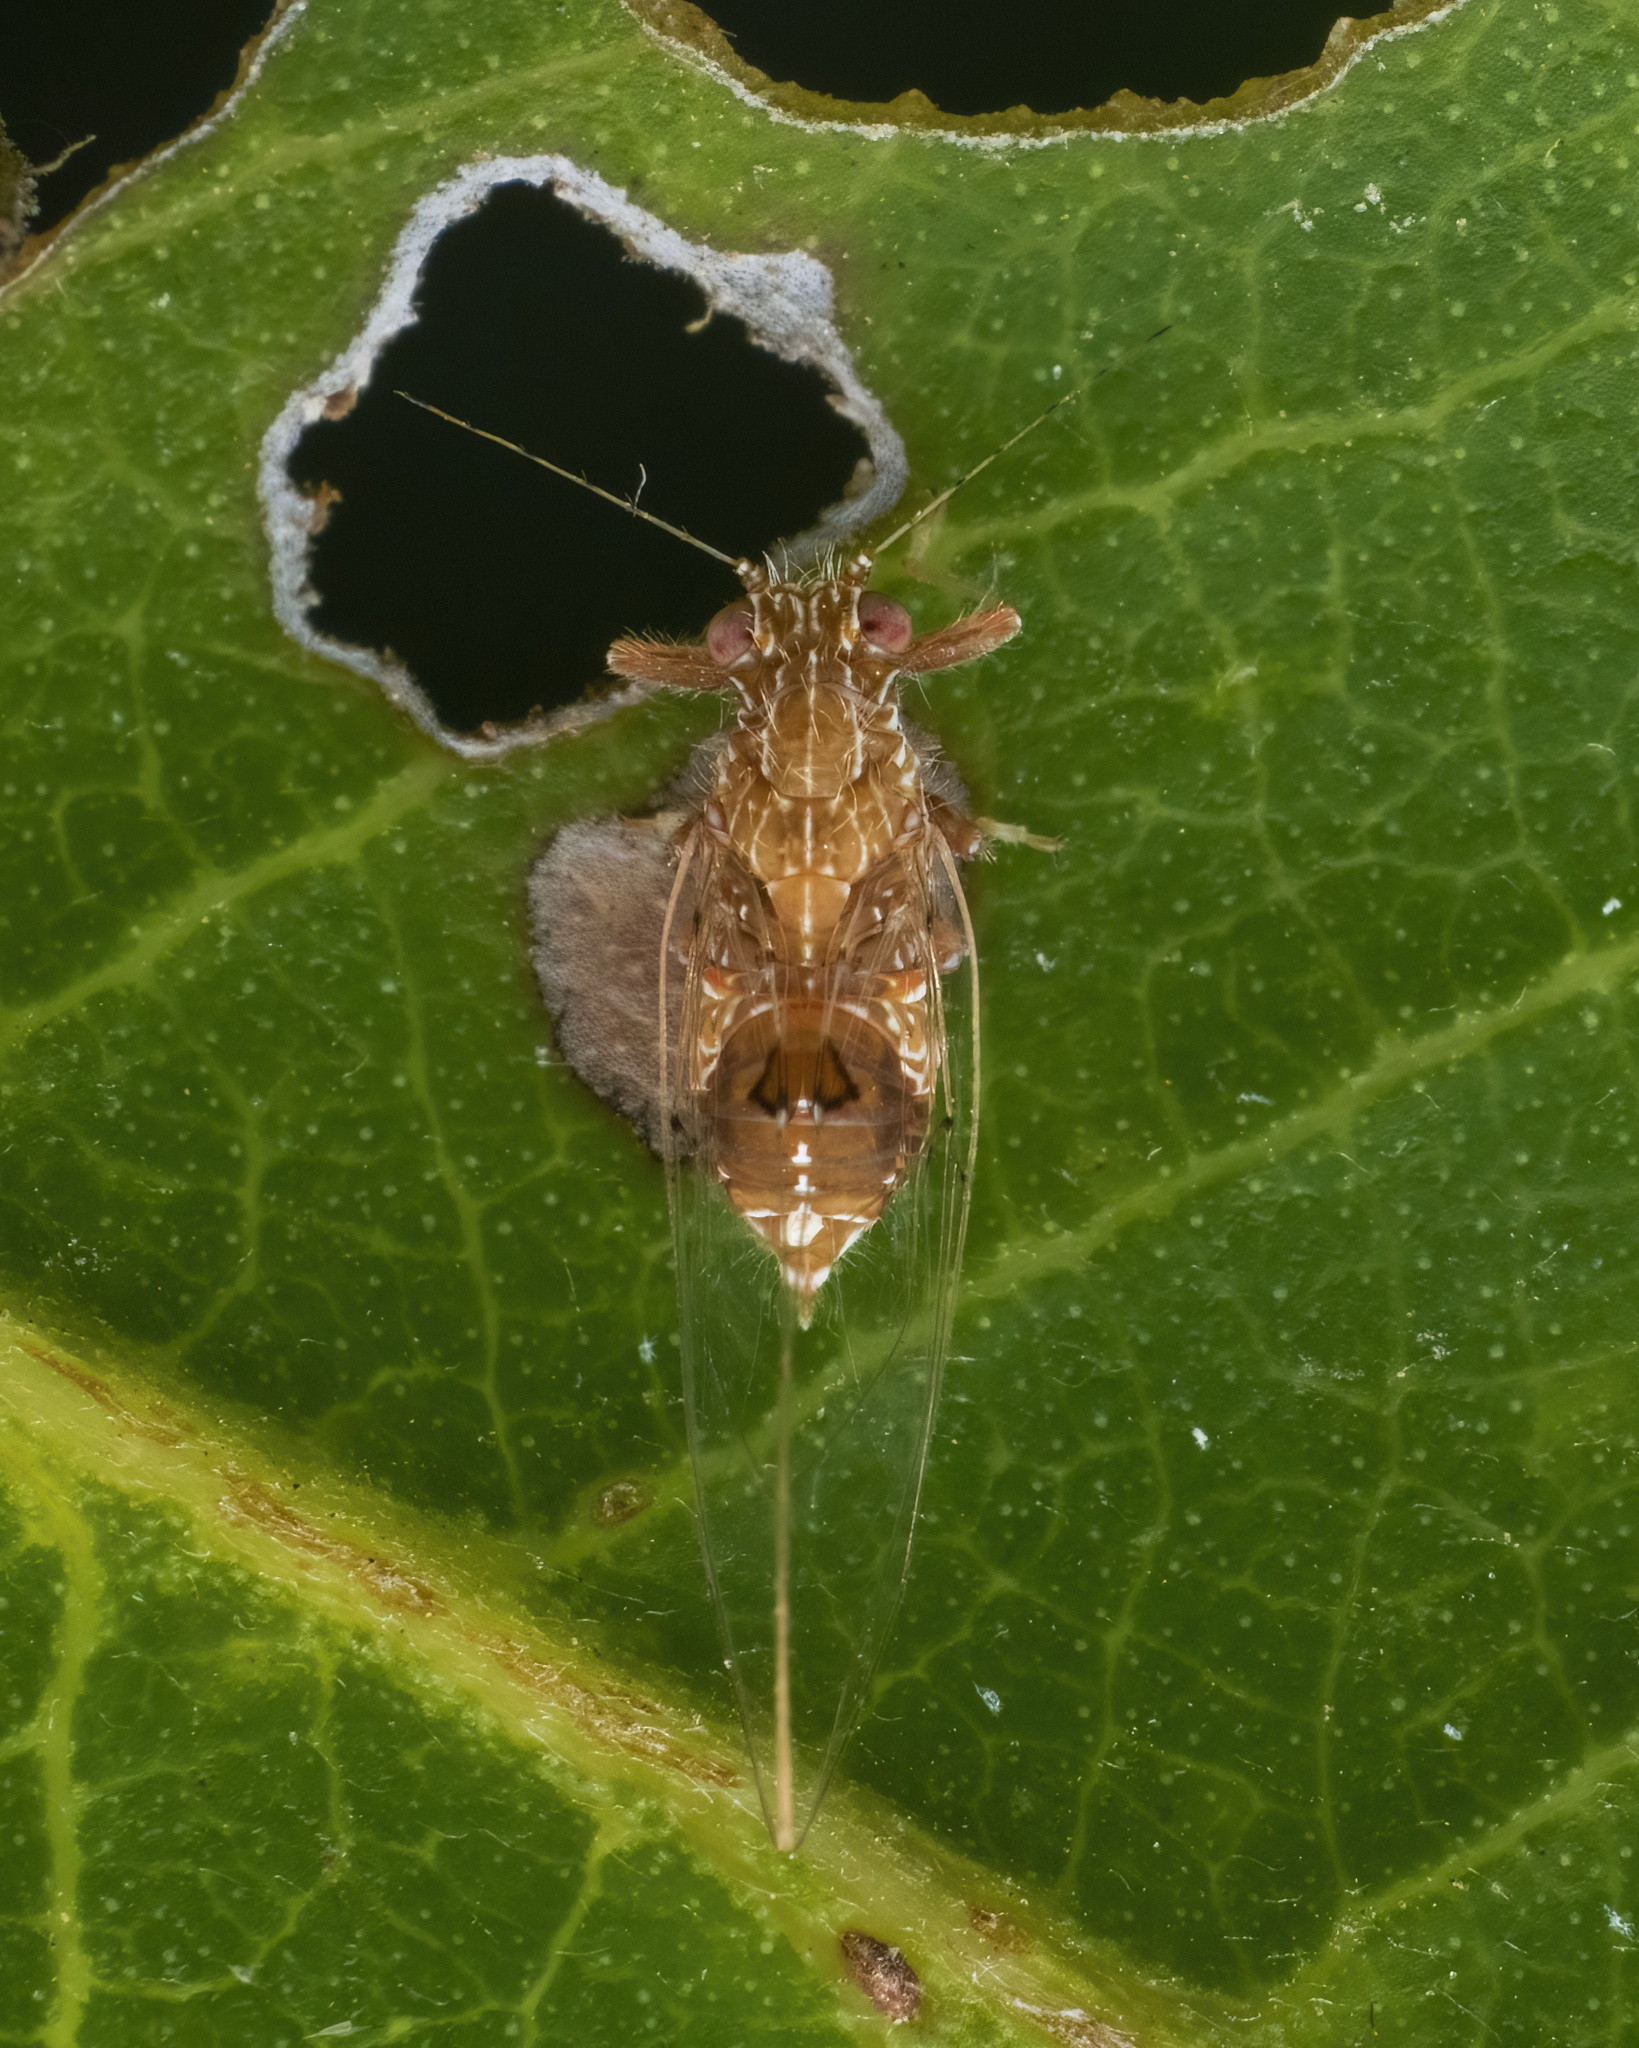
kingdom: Animalia
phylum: Arthropoda
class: Insecta
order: Hemiptera
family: Triozidae
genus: Trioza
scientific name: Trioza hirsuta
